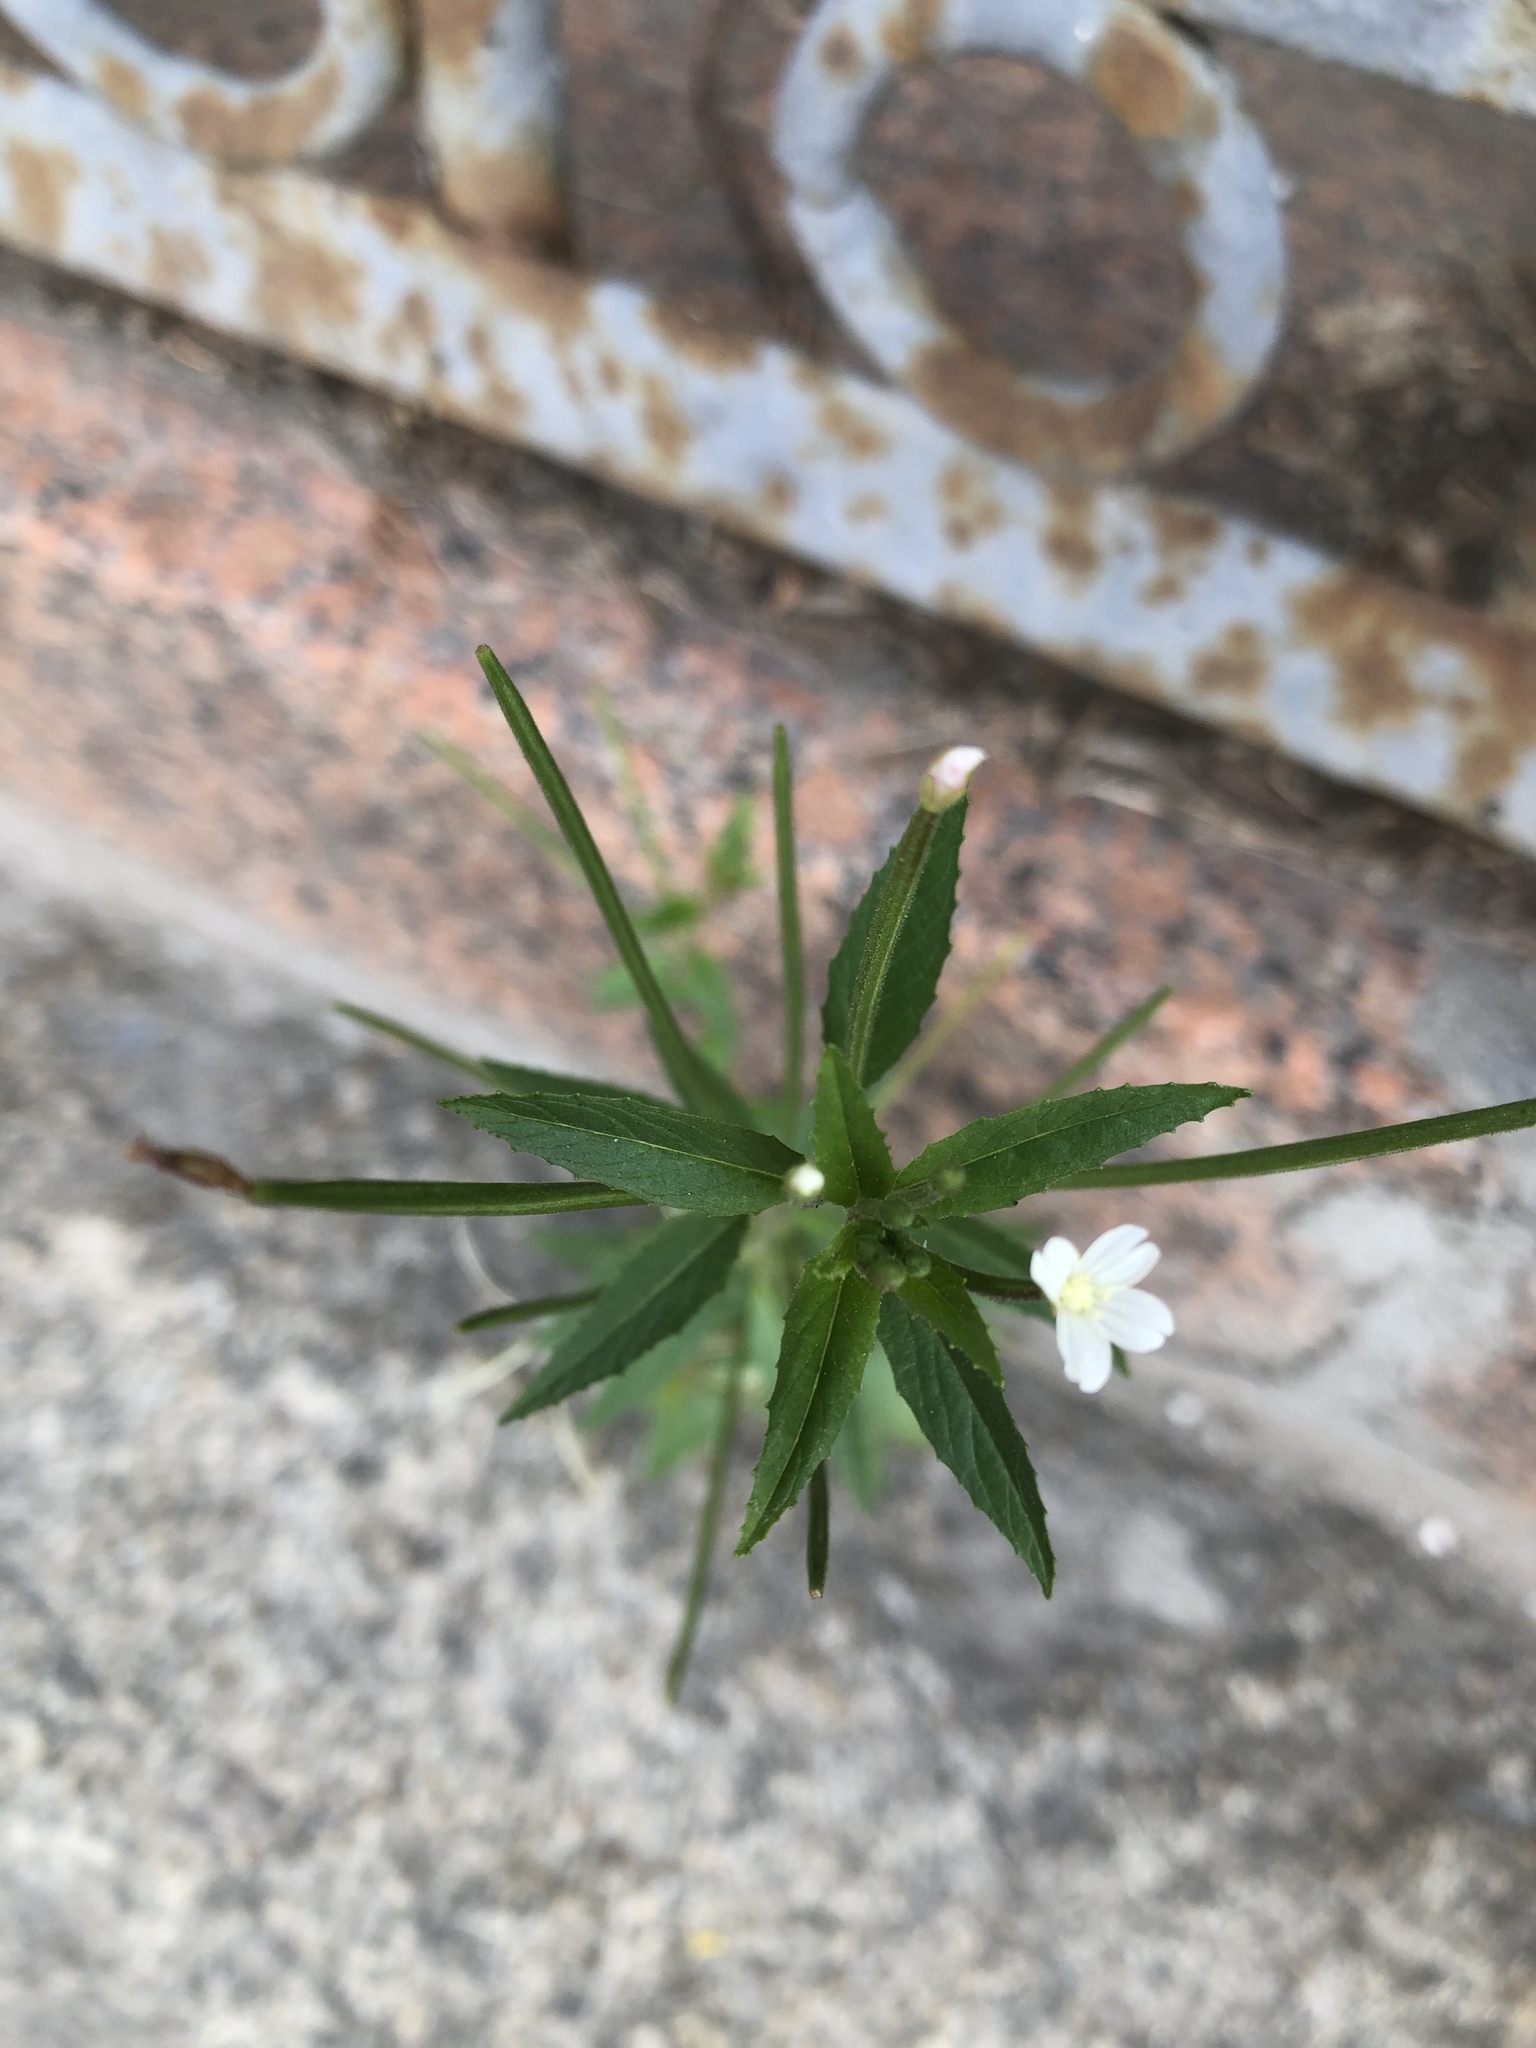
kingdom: Plantae
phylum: Tracheophyta
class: Magnoliopsida
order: Myrtales
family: Onagraceae
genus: Epilobium
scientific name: Epilobium pseudorubescens
